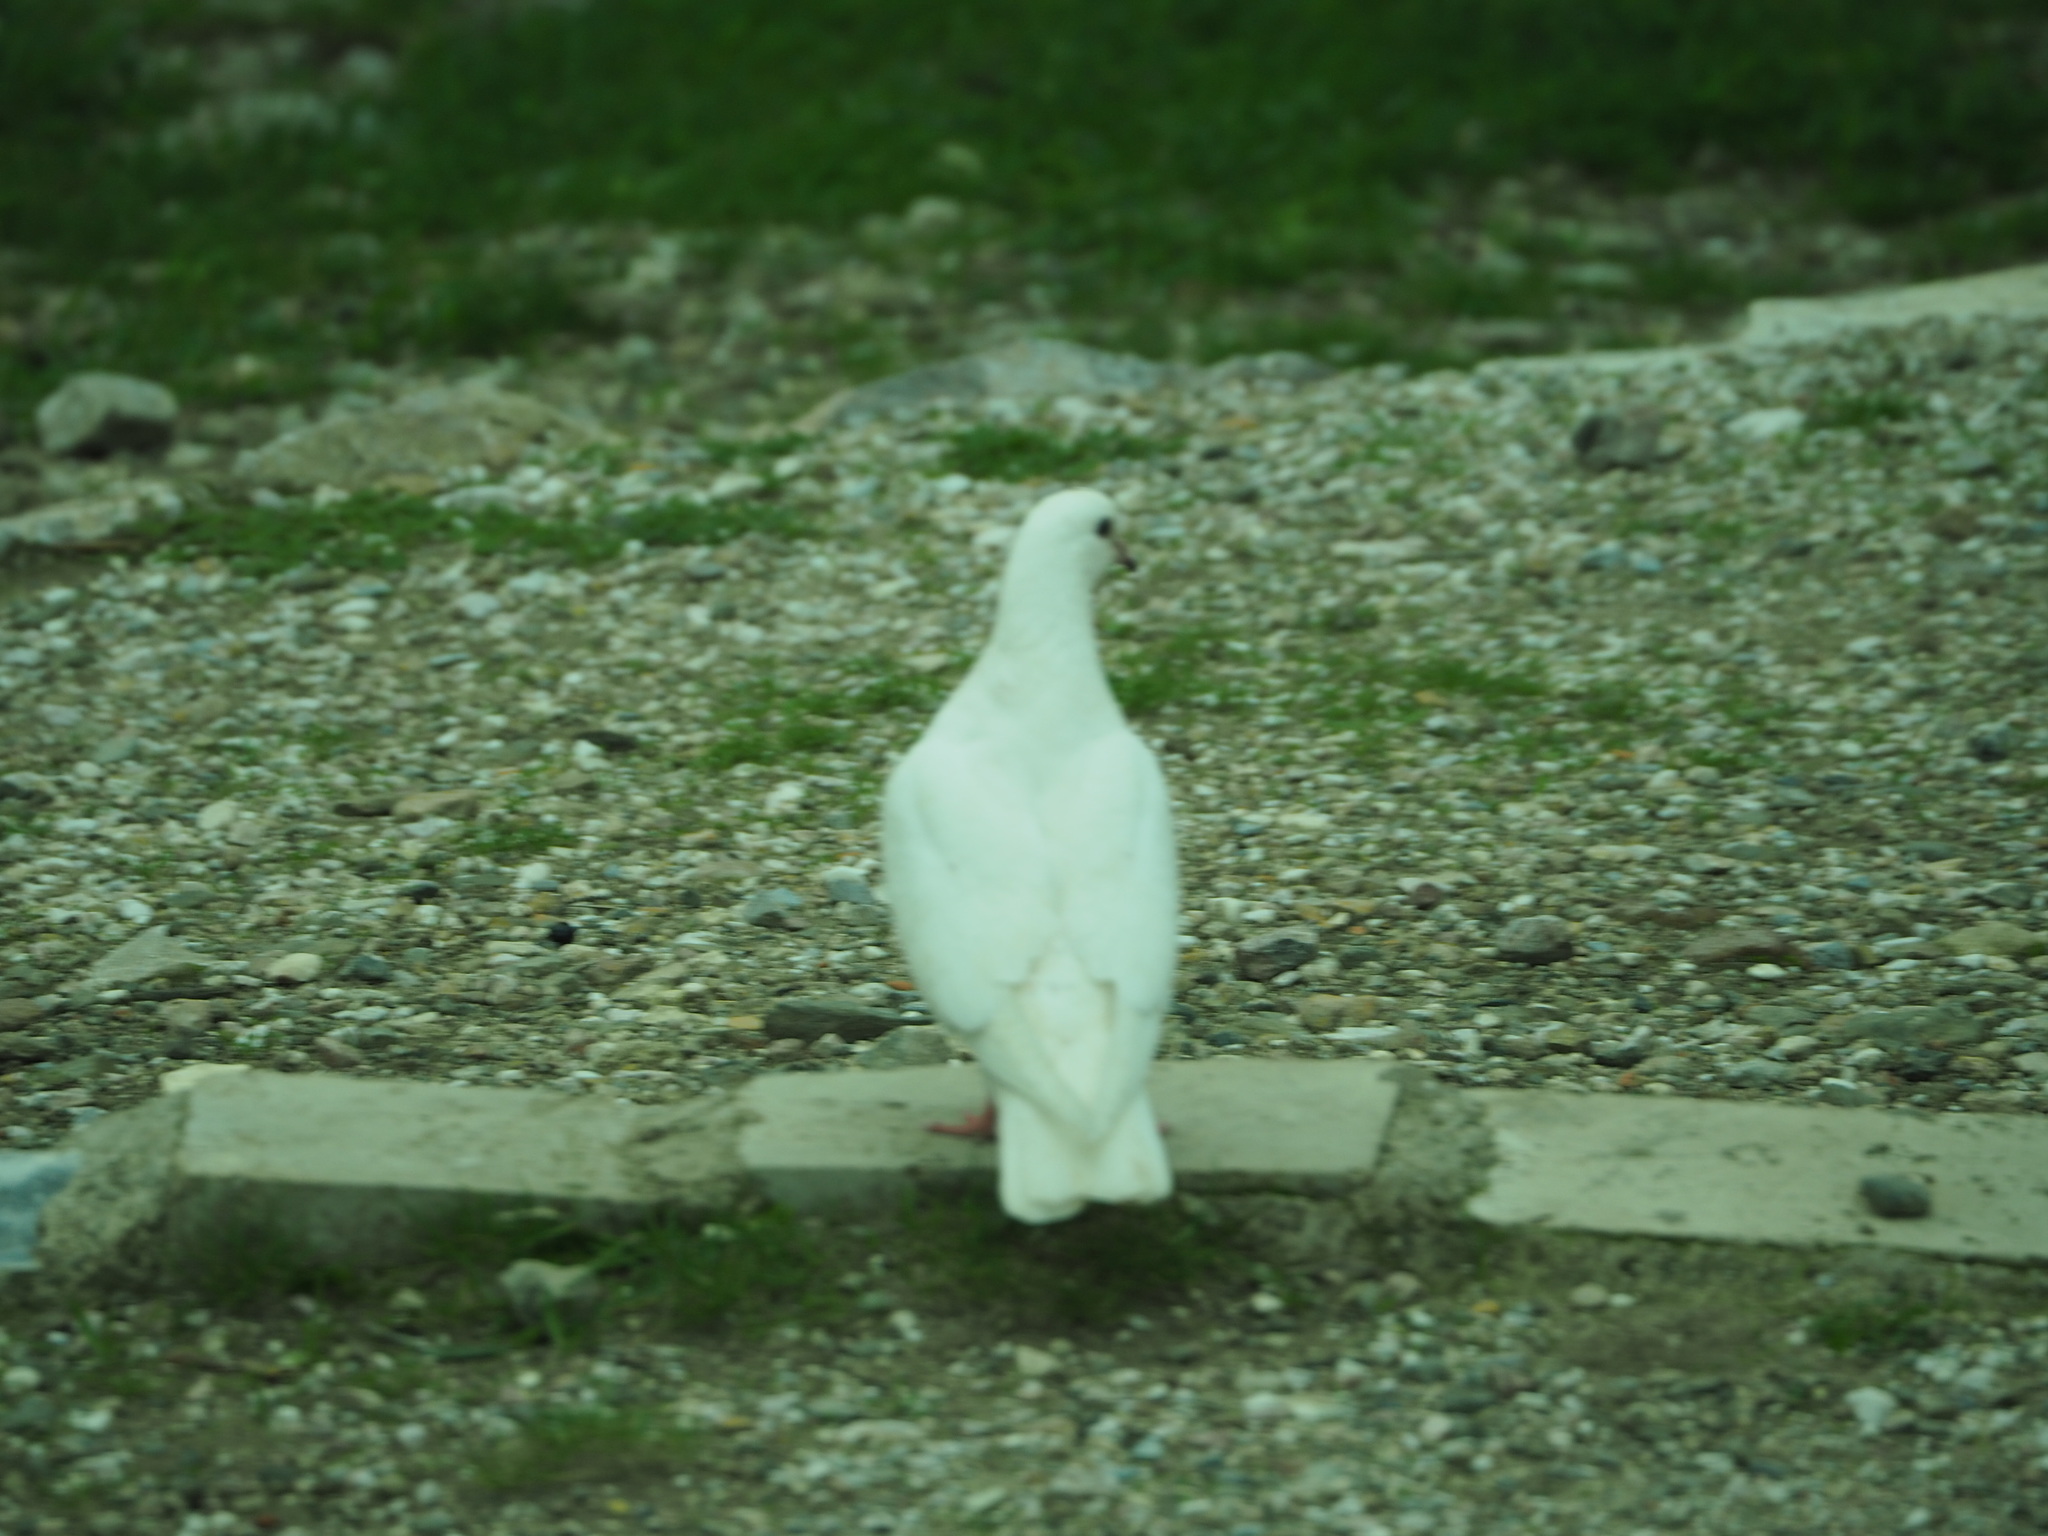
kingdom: Animalia
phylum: Chordata
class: Aves
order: Columbiformes
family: Columbidae
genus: Columba
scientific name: Columba livia
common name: Rock pigeon
